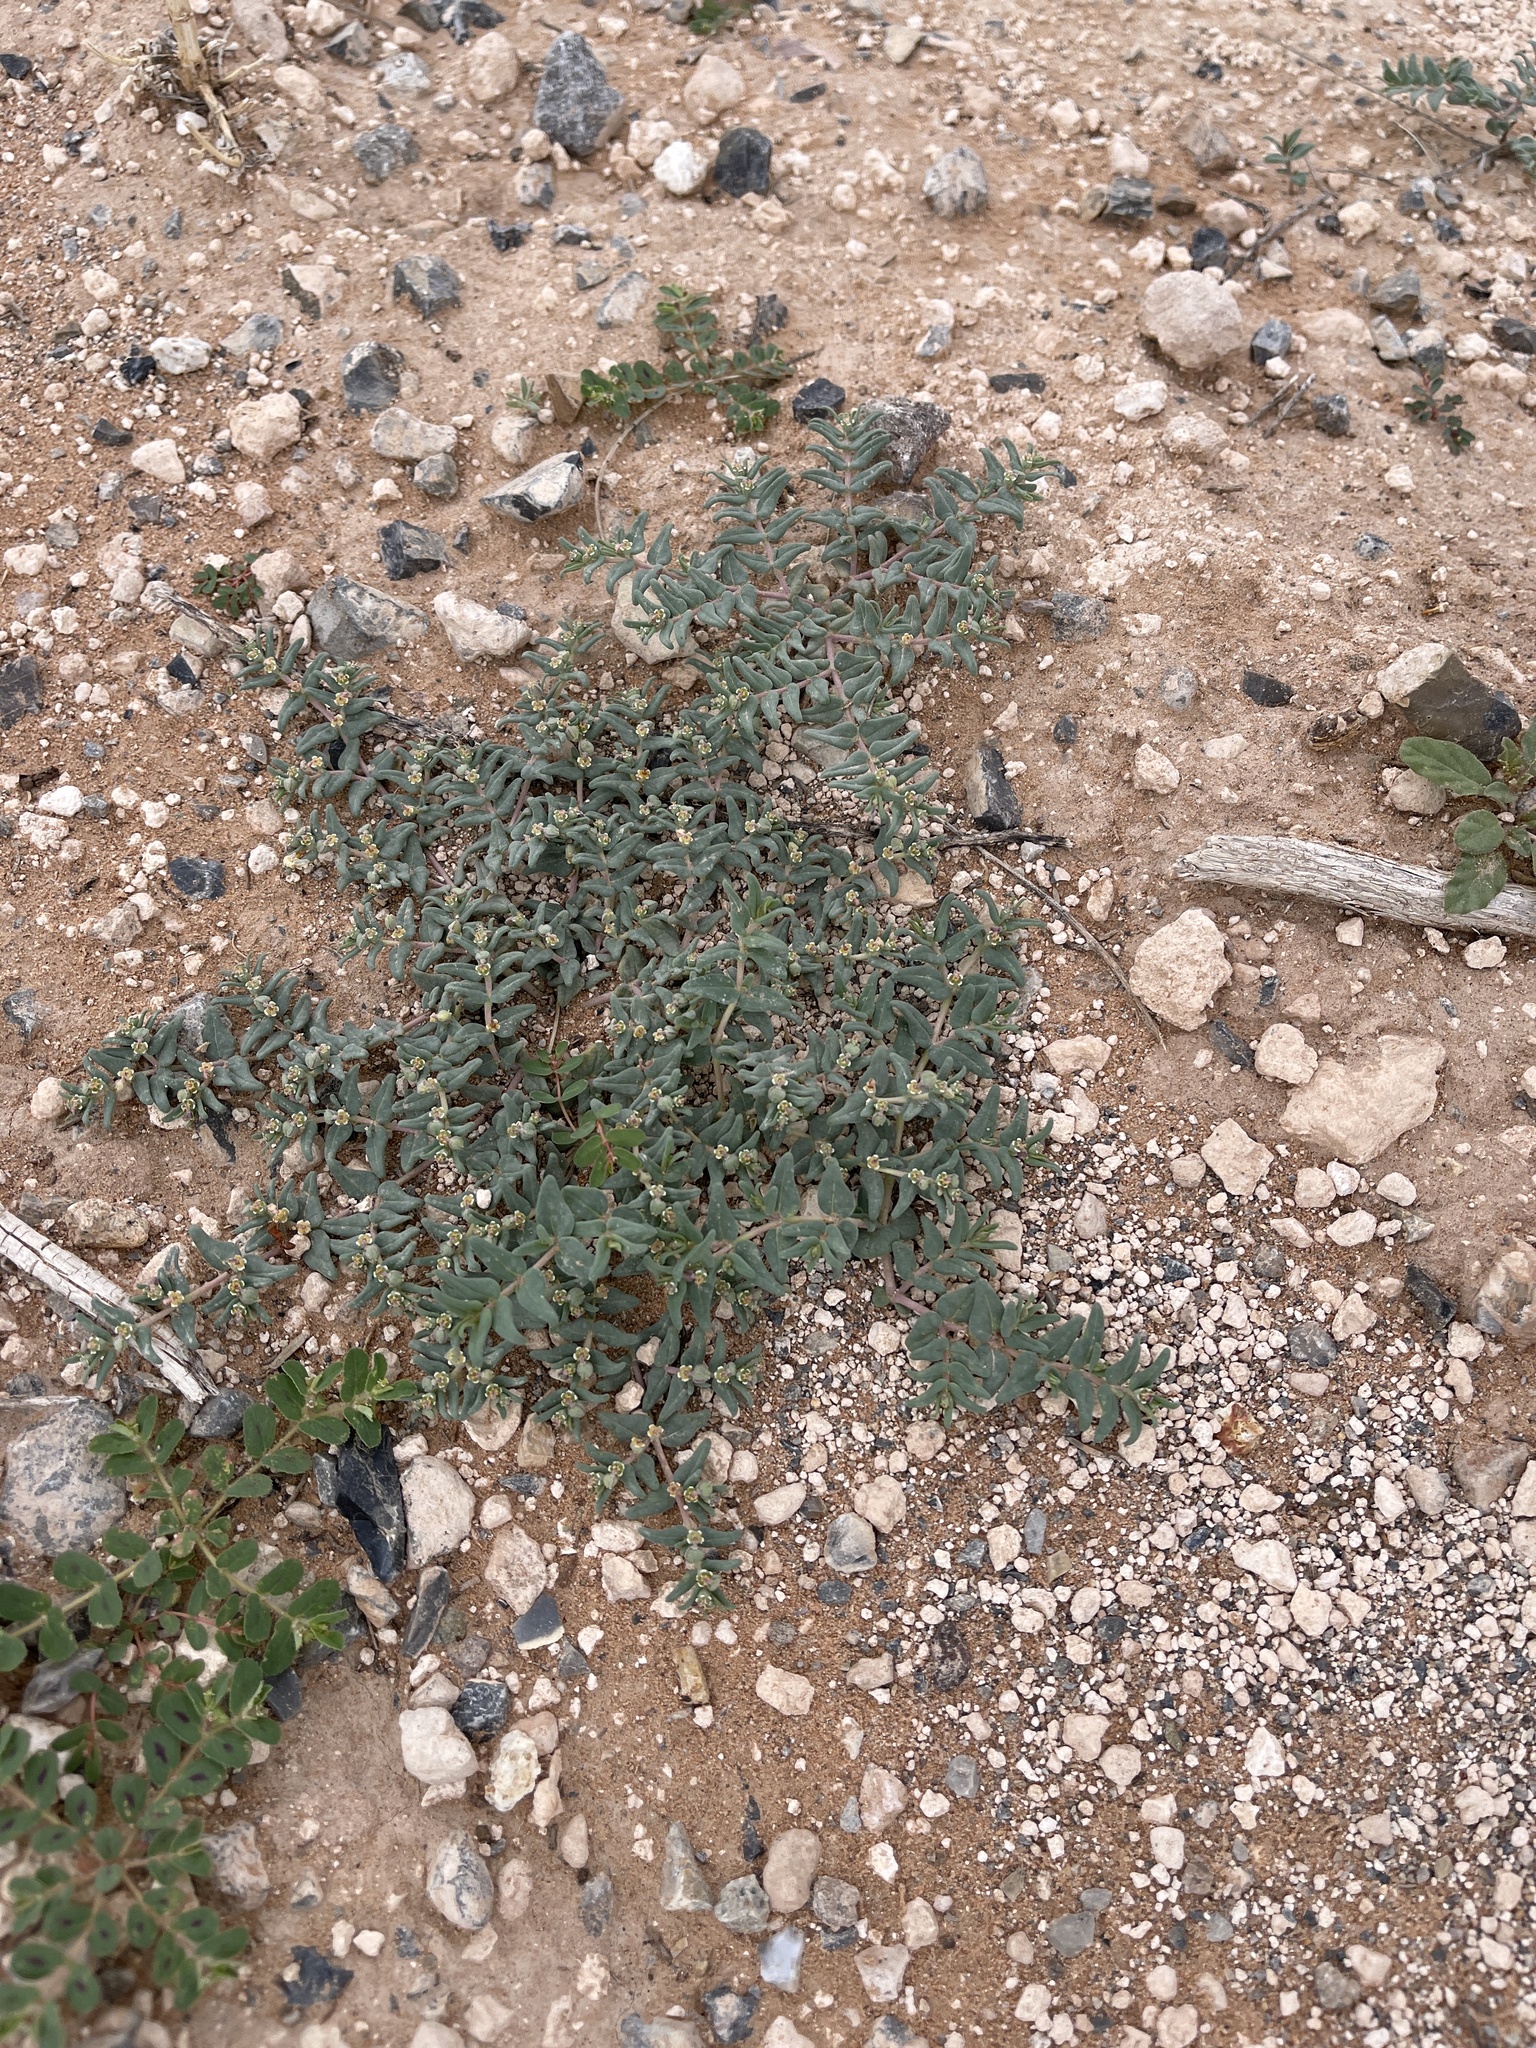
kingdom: Plantae
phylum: Tracheophyta
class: Magnoliopsida
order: Malpighiales
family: Euphorbiaceae
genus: Euphorbia
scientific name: Euphorbia lata
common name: Hoary euphorbia
